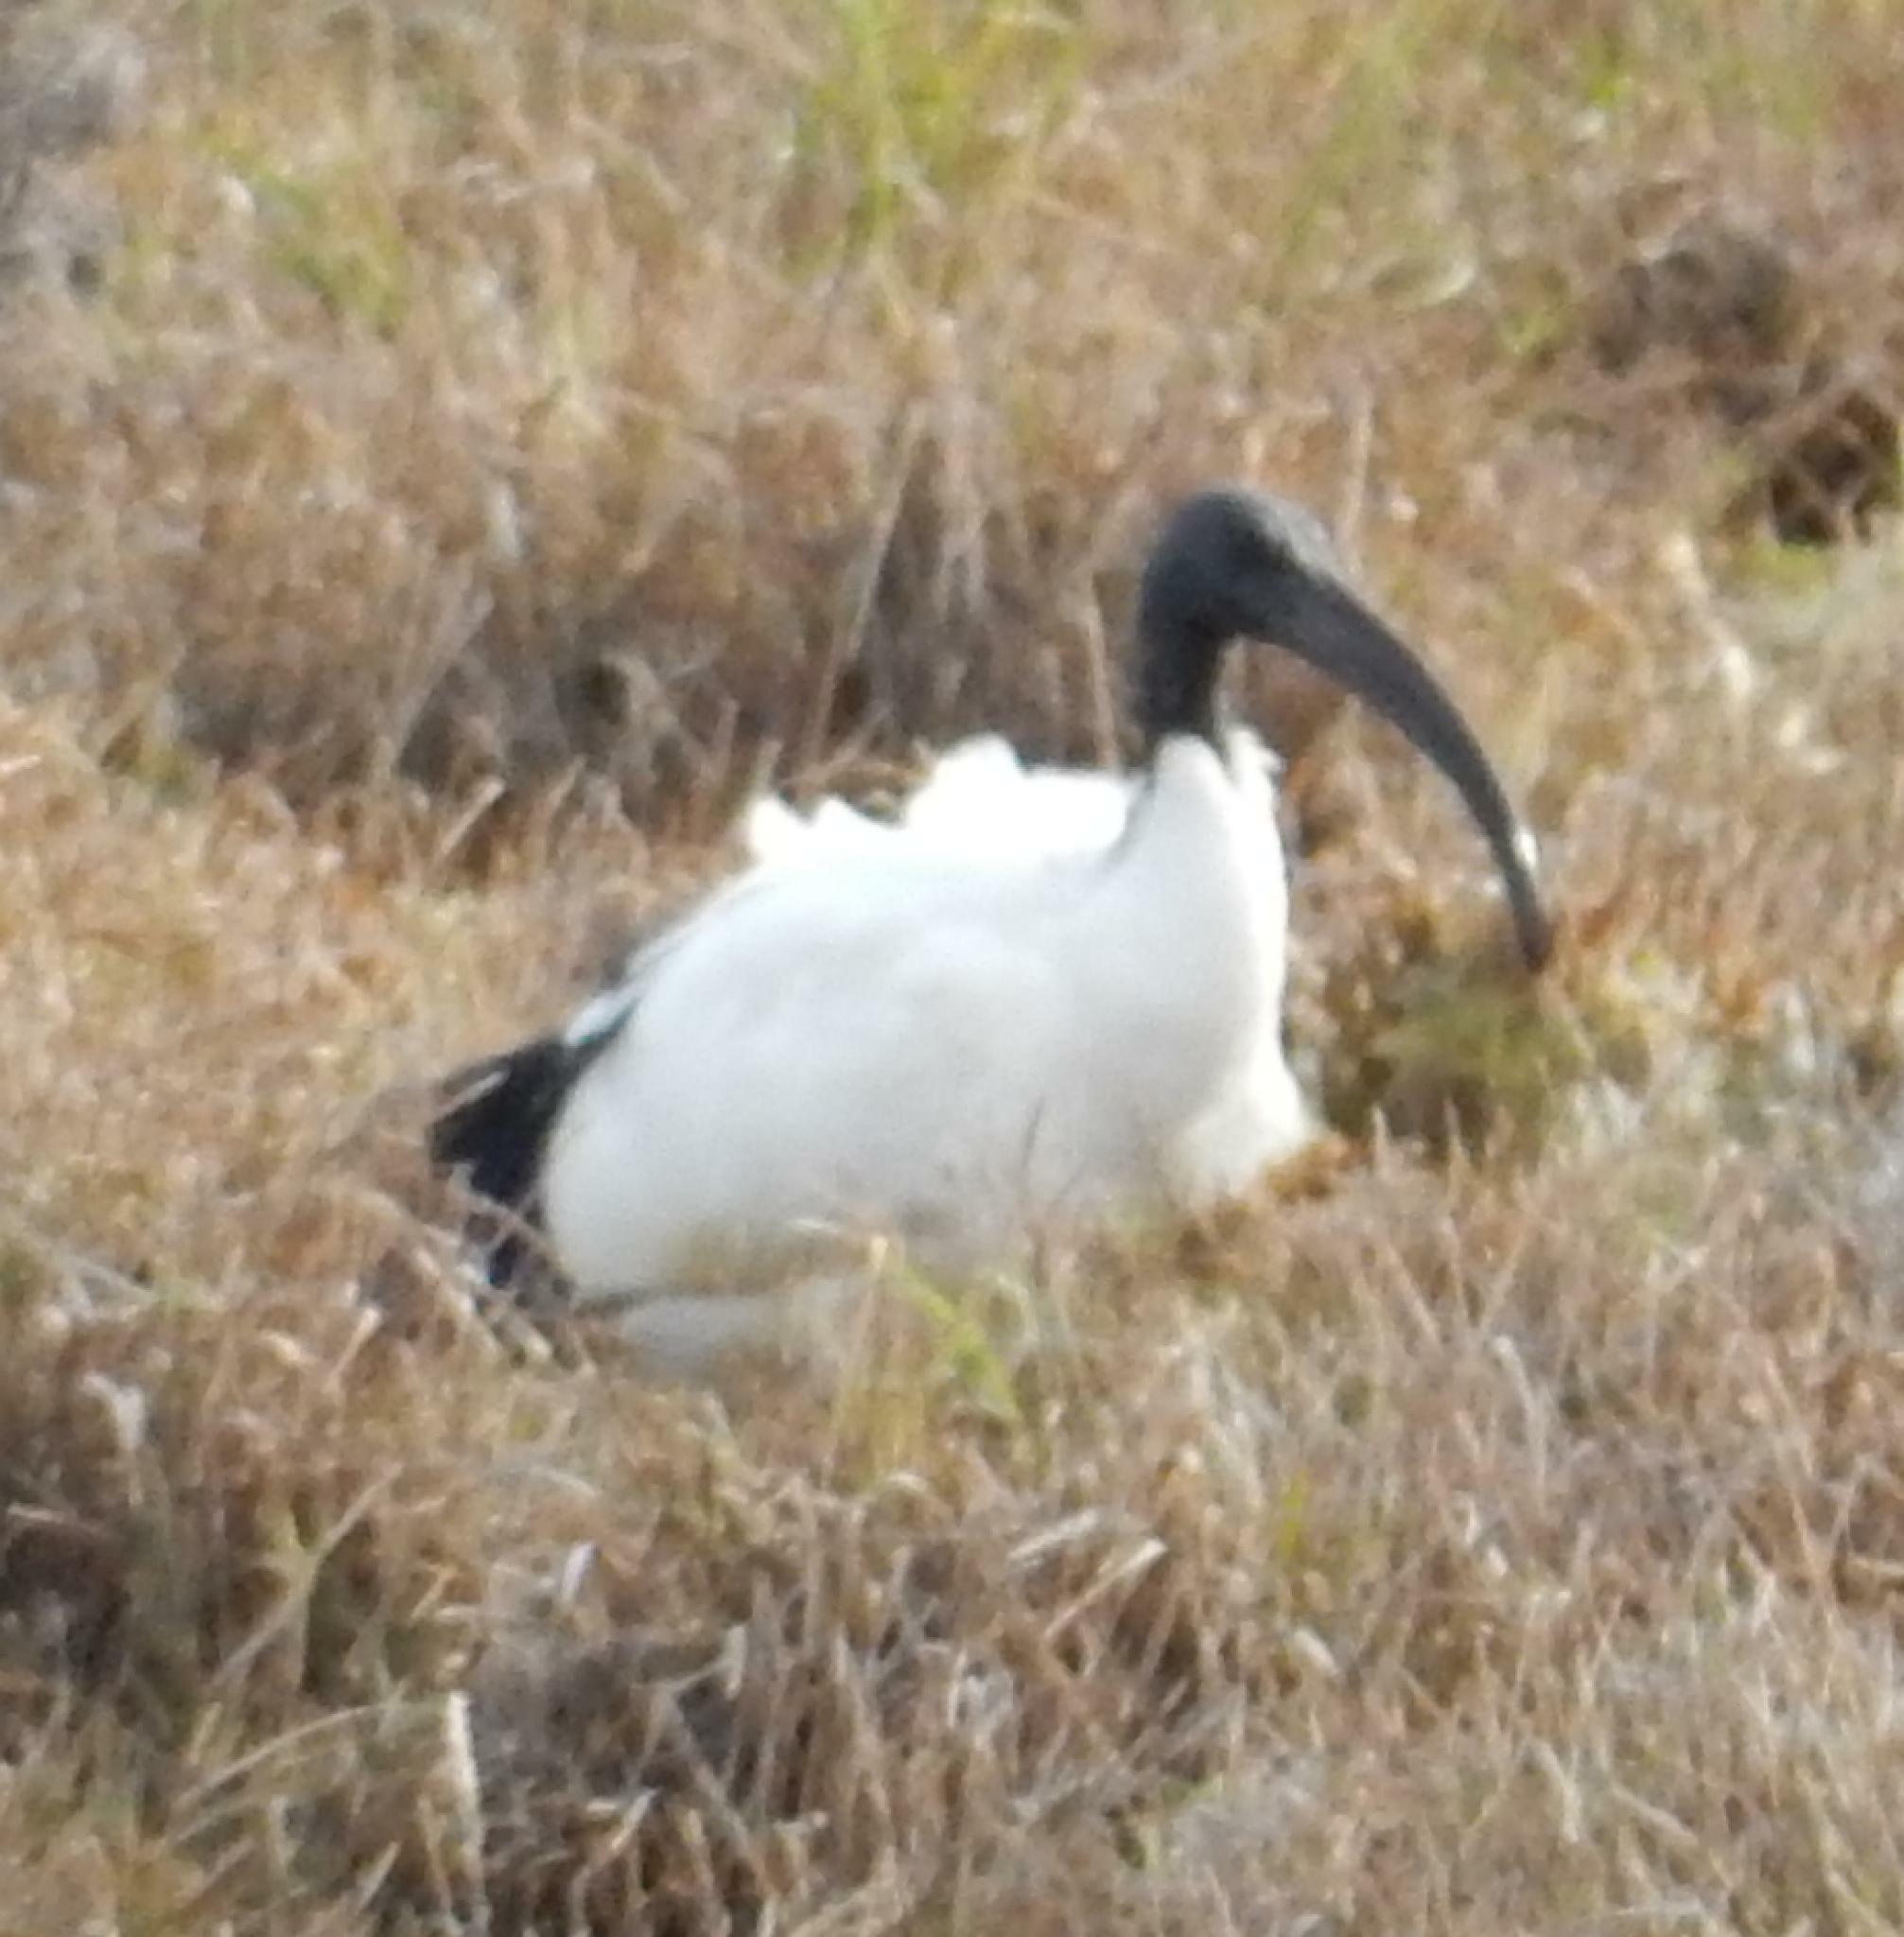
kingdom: Animalia
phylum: Chordata
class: Aves
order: Pelecaniformes
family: Threskiornithidae
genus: Threskiornis
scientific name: Threskiornis aethiopicus
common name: Sacred ibis
